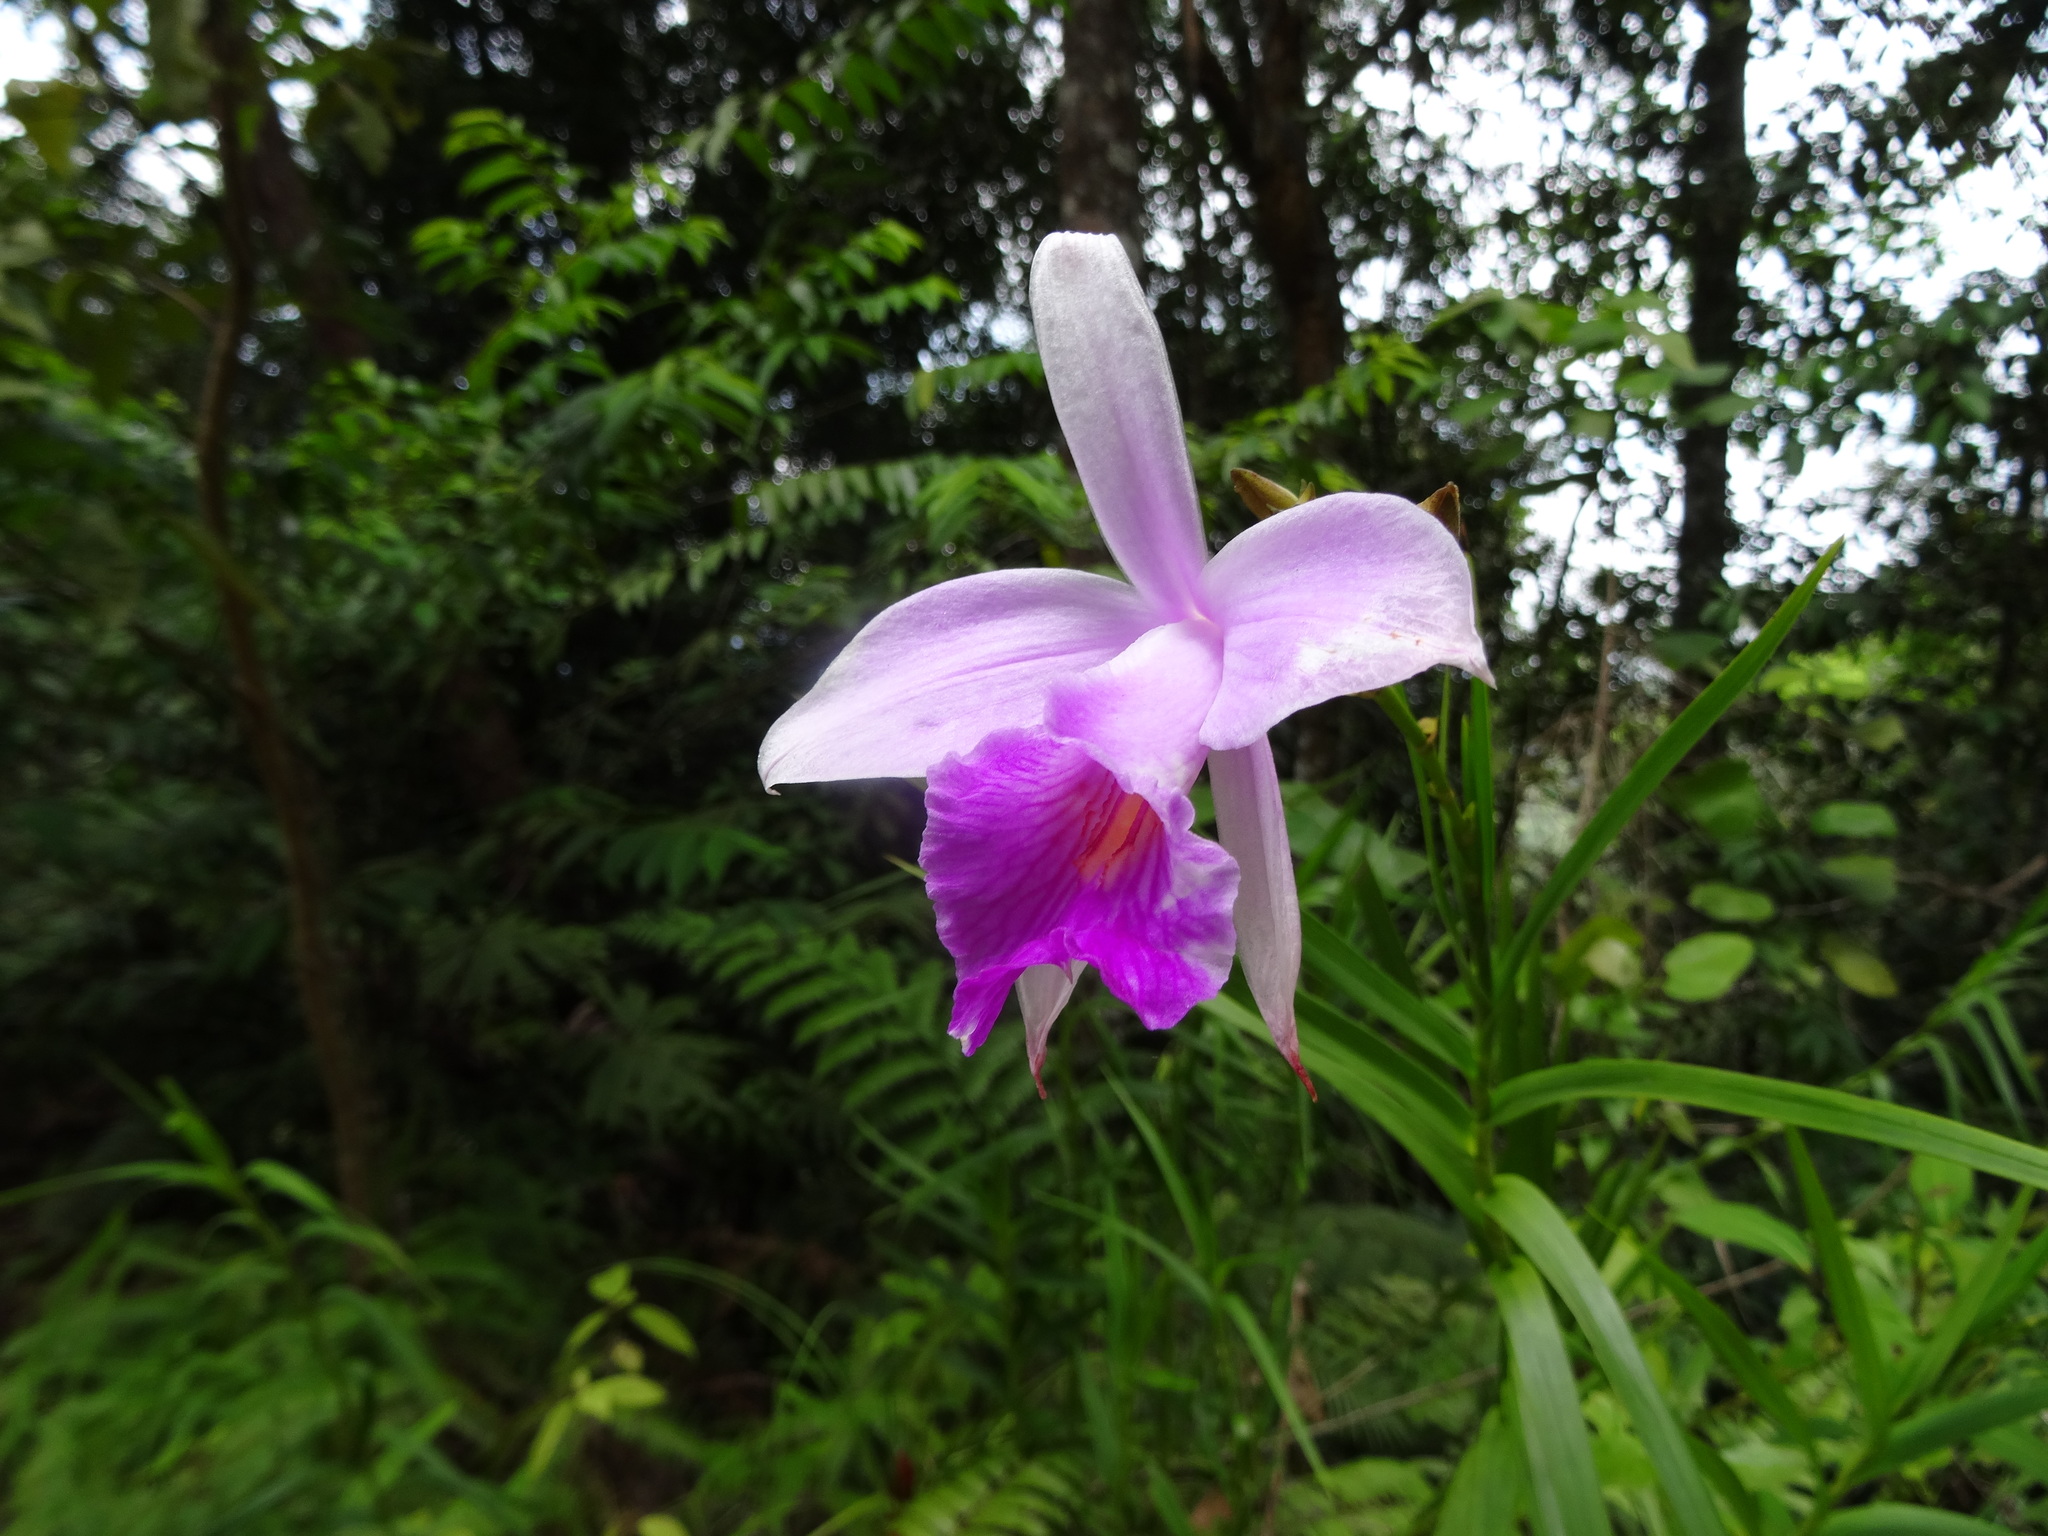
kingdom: Plantae
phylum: Tracheophyta
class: Liliopsida
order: Asparagales
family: Orchidaceae
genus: Arundina
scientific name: Arundina graminifolia
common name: Bamboo orchid
